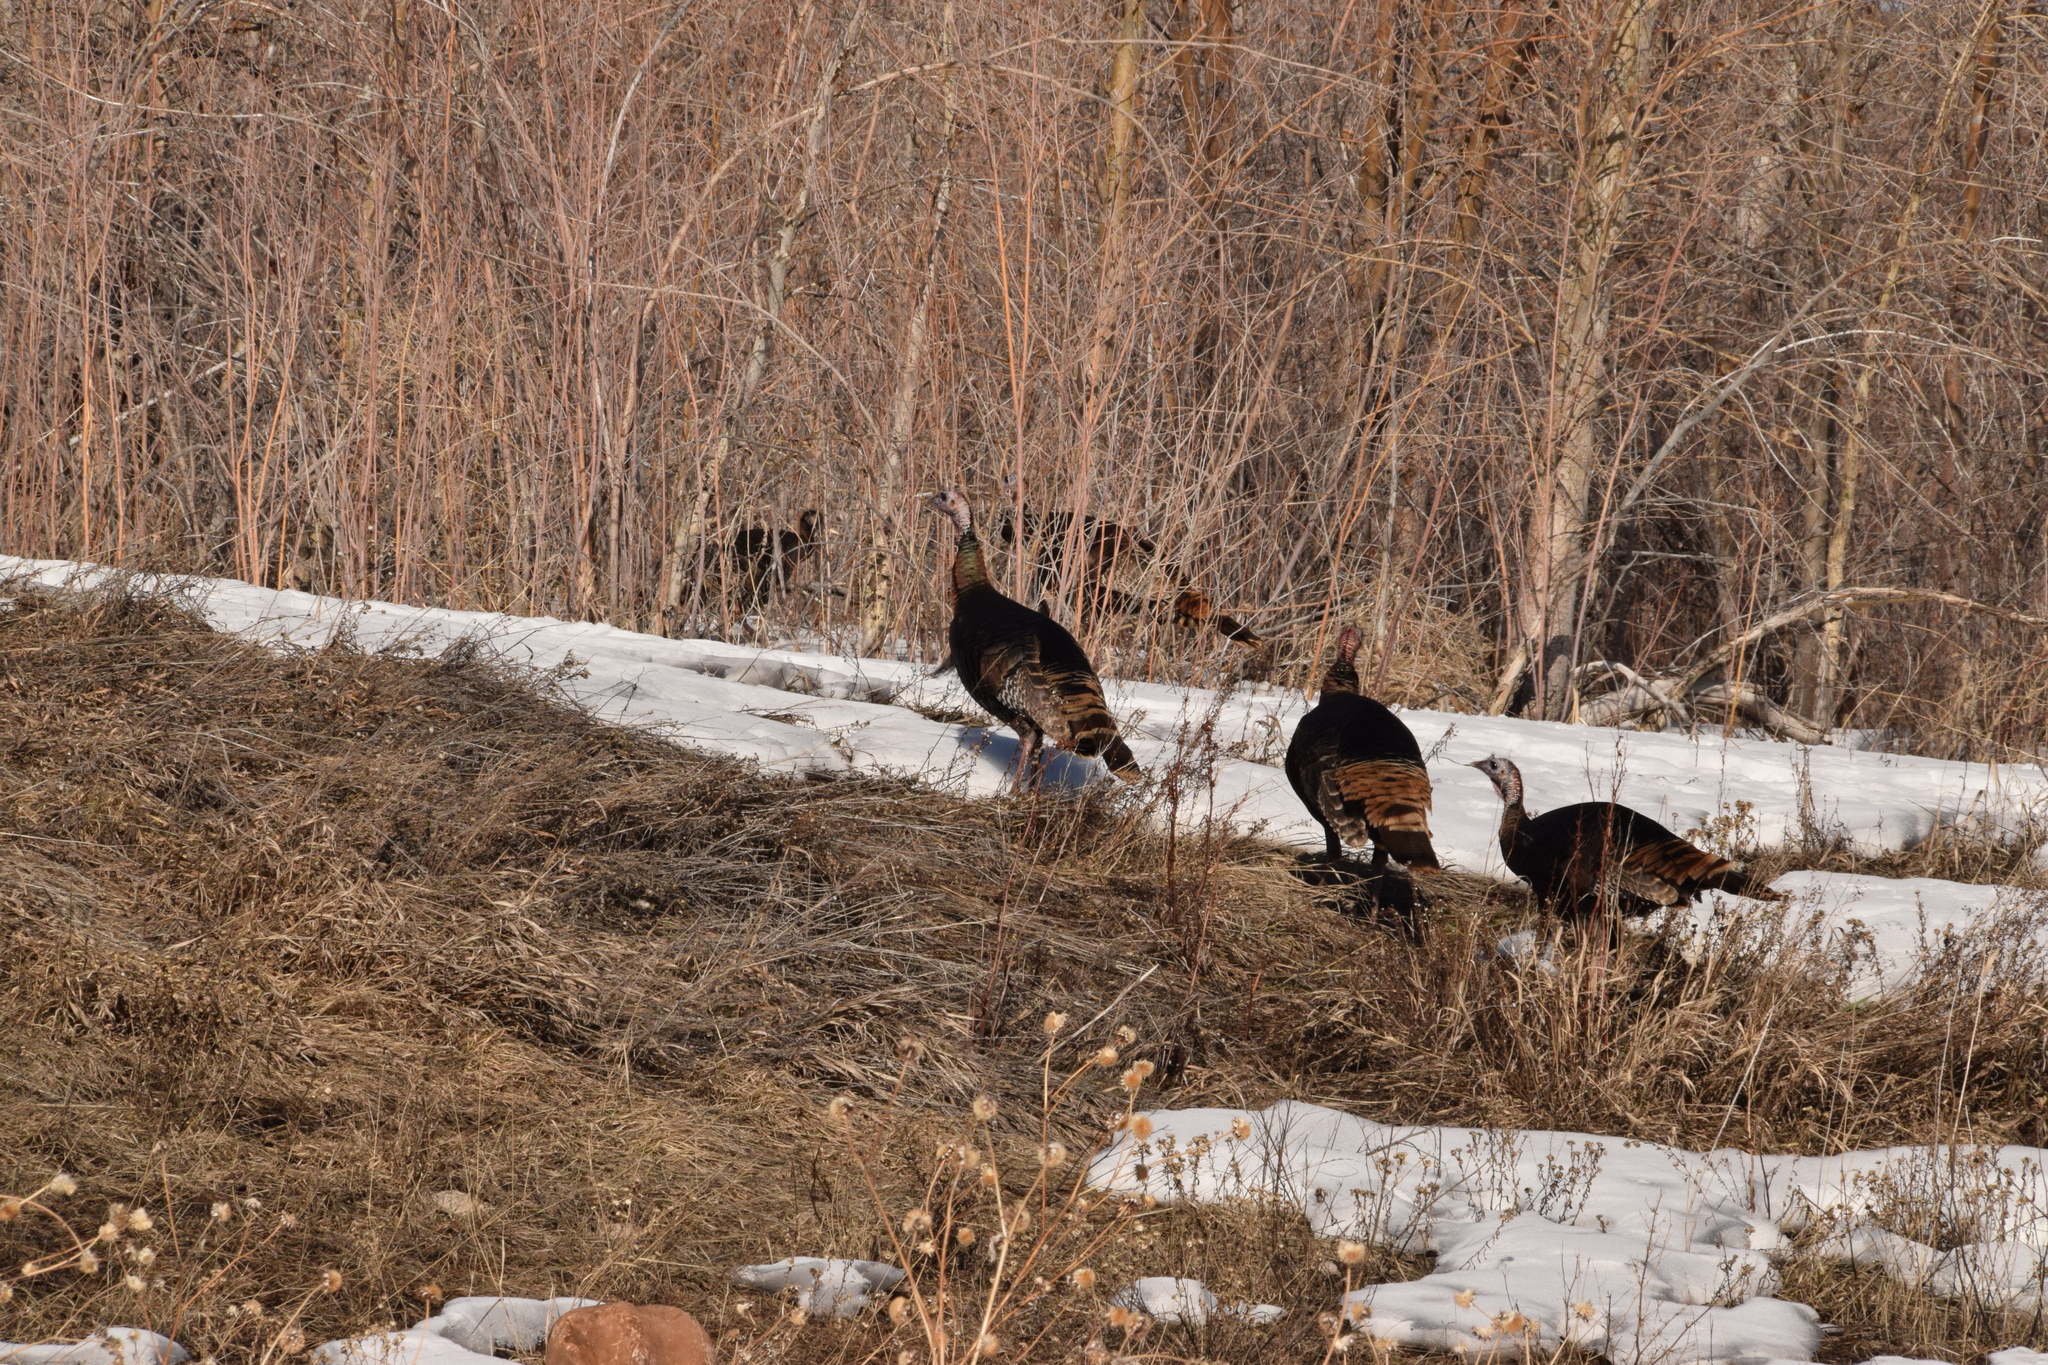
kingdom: Animalia
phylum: Chordata
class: Aves
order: Galliformes
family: Phasianidae
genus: Meleagris
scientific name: Meleagris gallopavo
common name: Wild turkey
